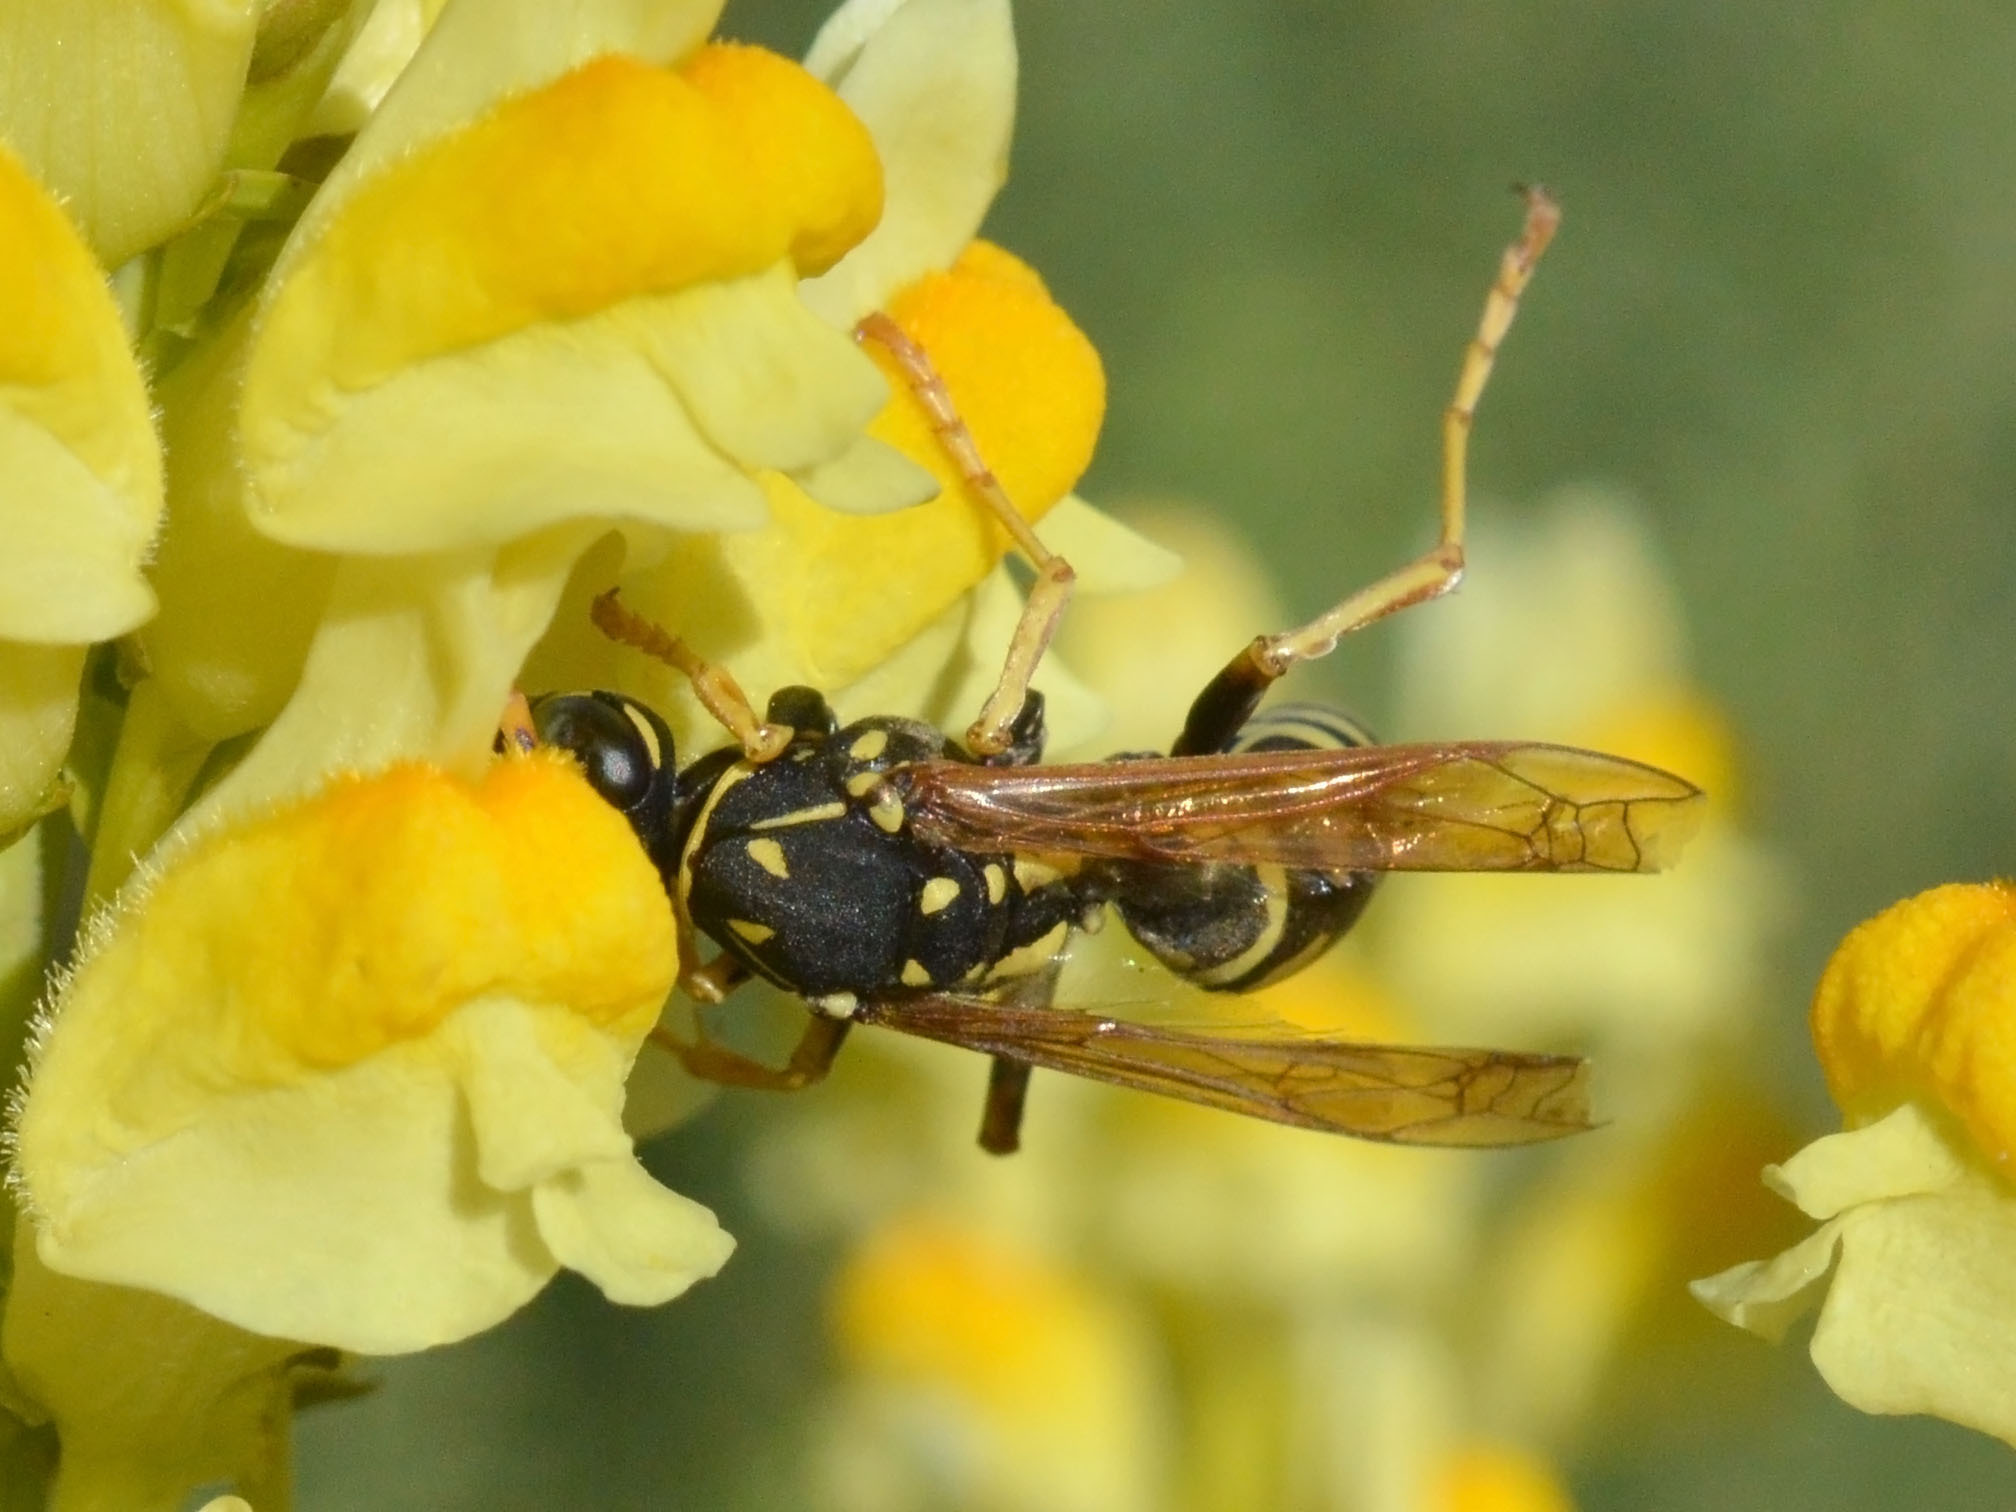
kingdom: Animalia
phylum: Arthropoda
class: Insecta
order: Hymenoptera
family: Eumenidae
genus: Polistes
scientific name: Polistes dominula
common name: Paper wasp
